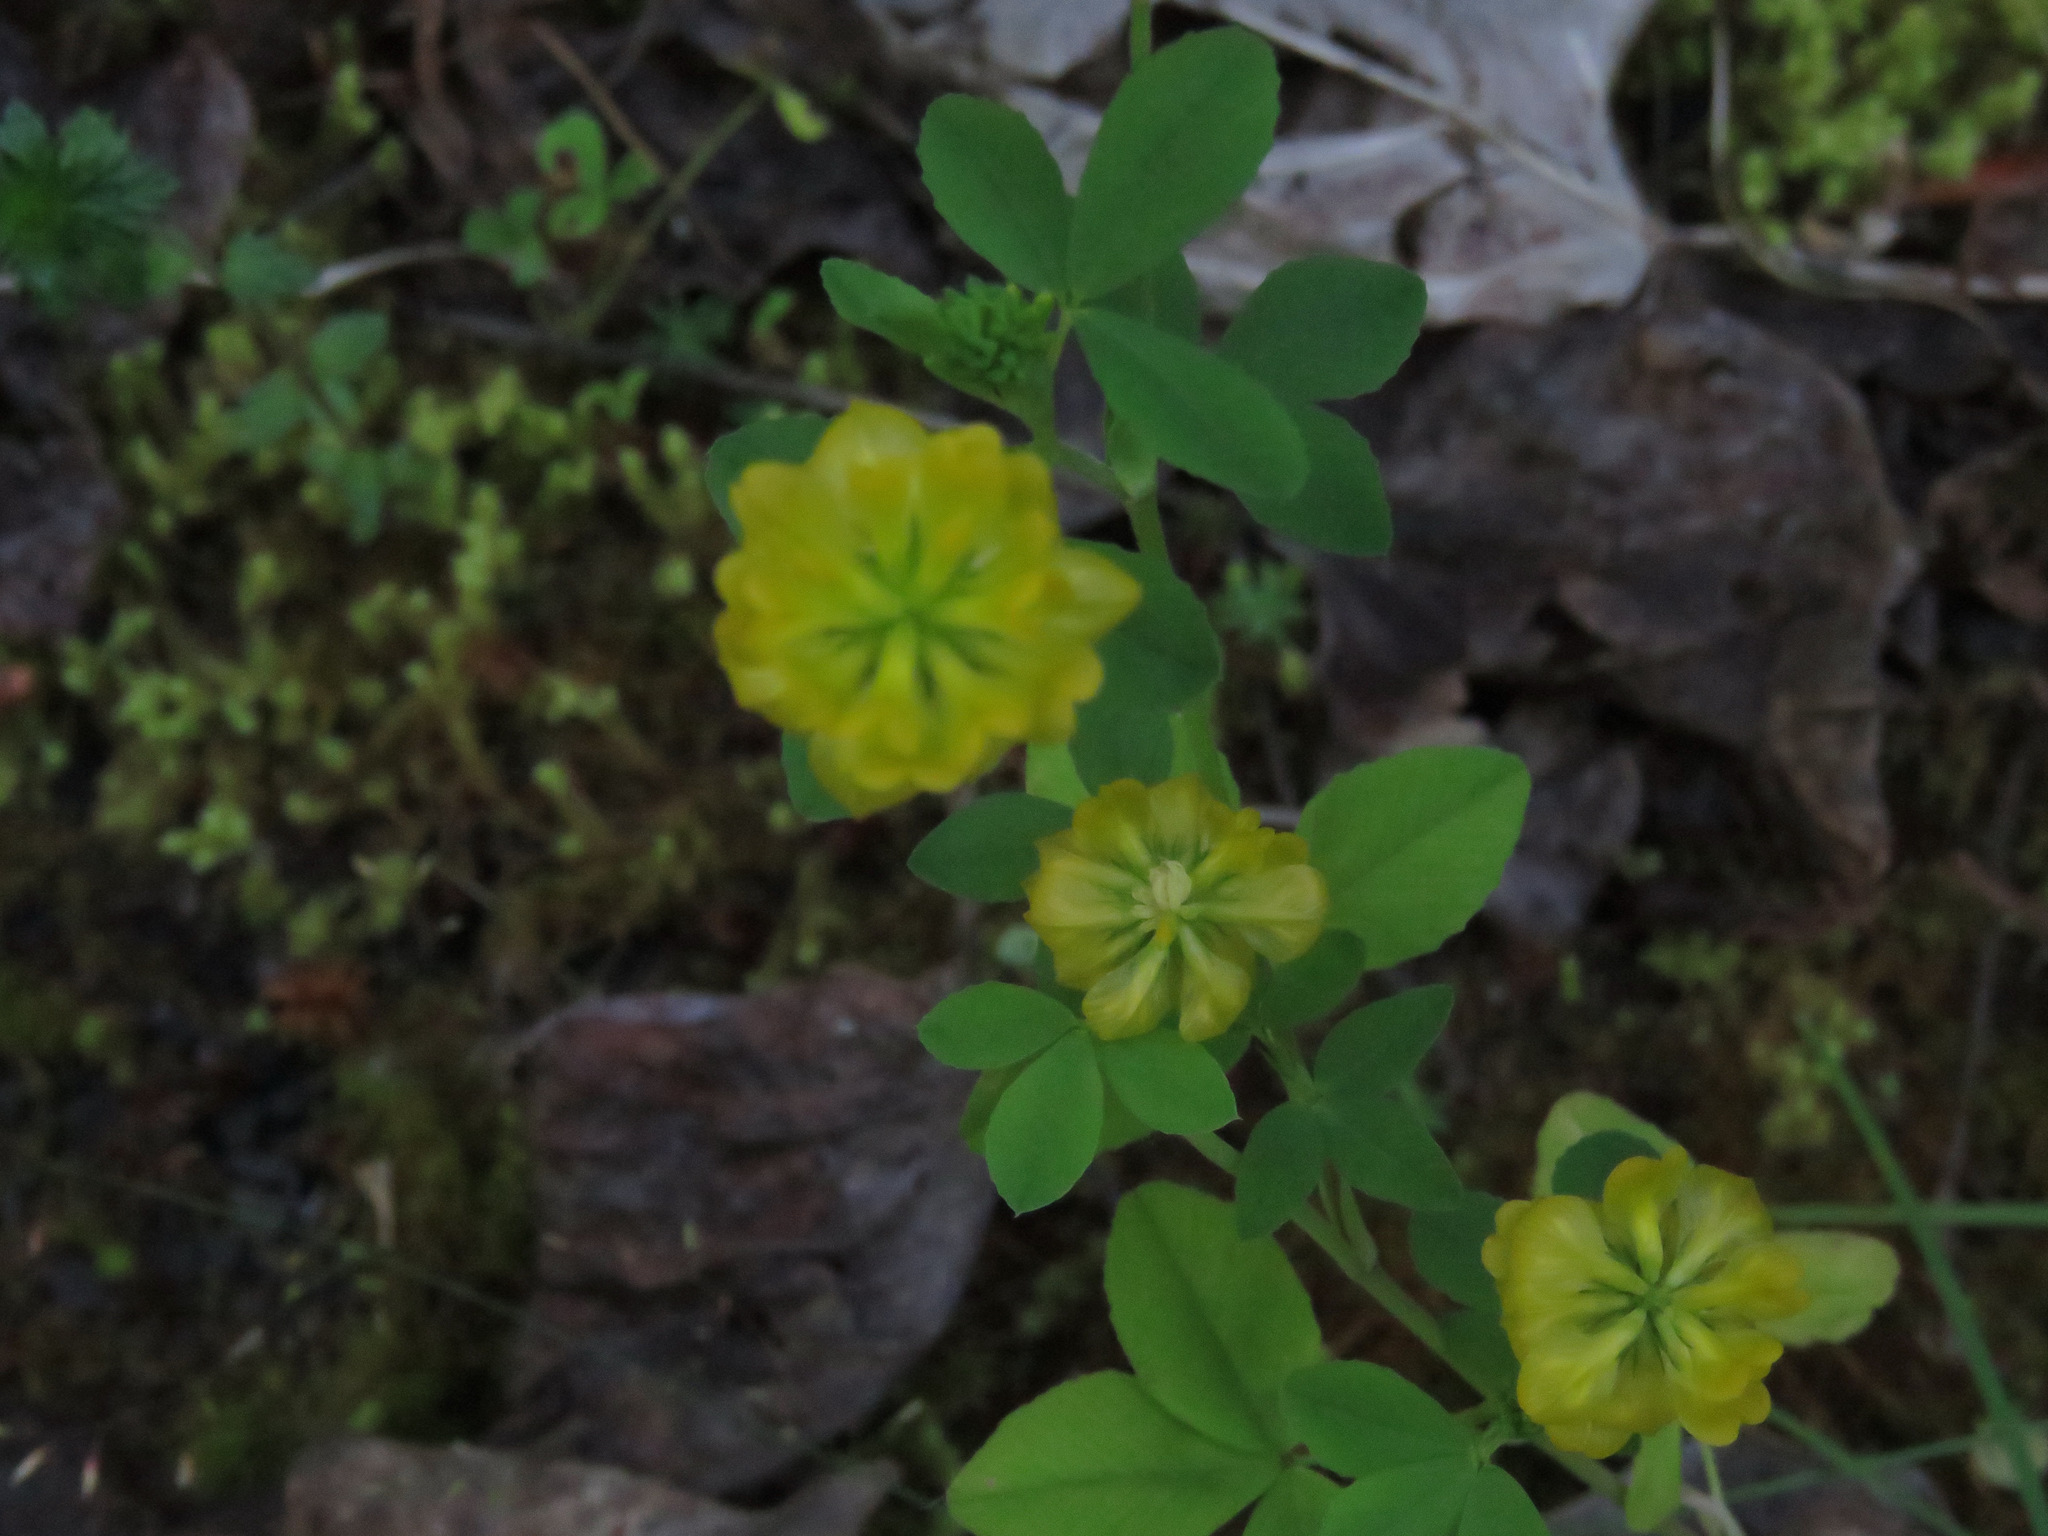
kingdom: Plantae
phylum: Tracheophyta
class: Magnoliopsida
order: Fabales
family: Fabaceae
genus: Trifolium
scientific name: Trifolium aureum
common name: Golden clover
